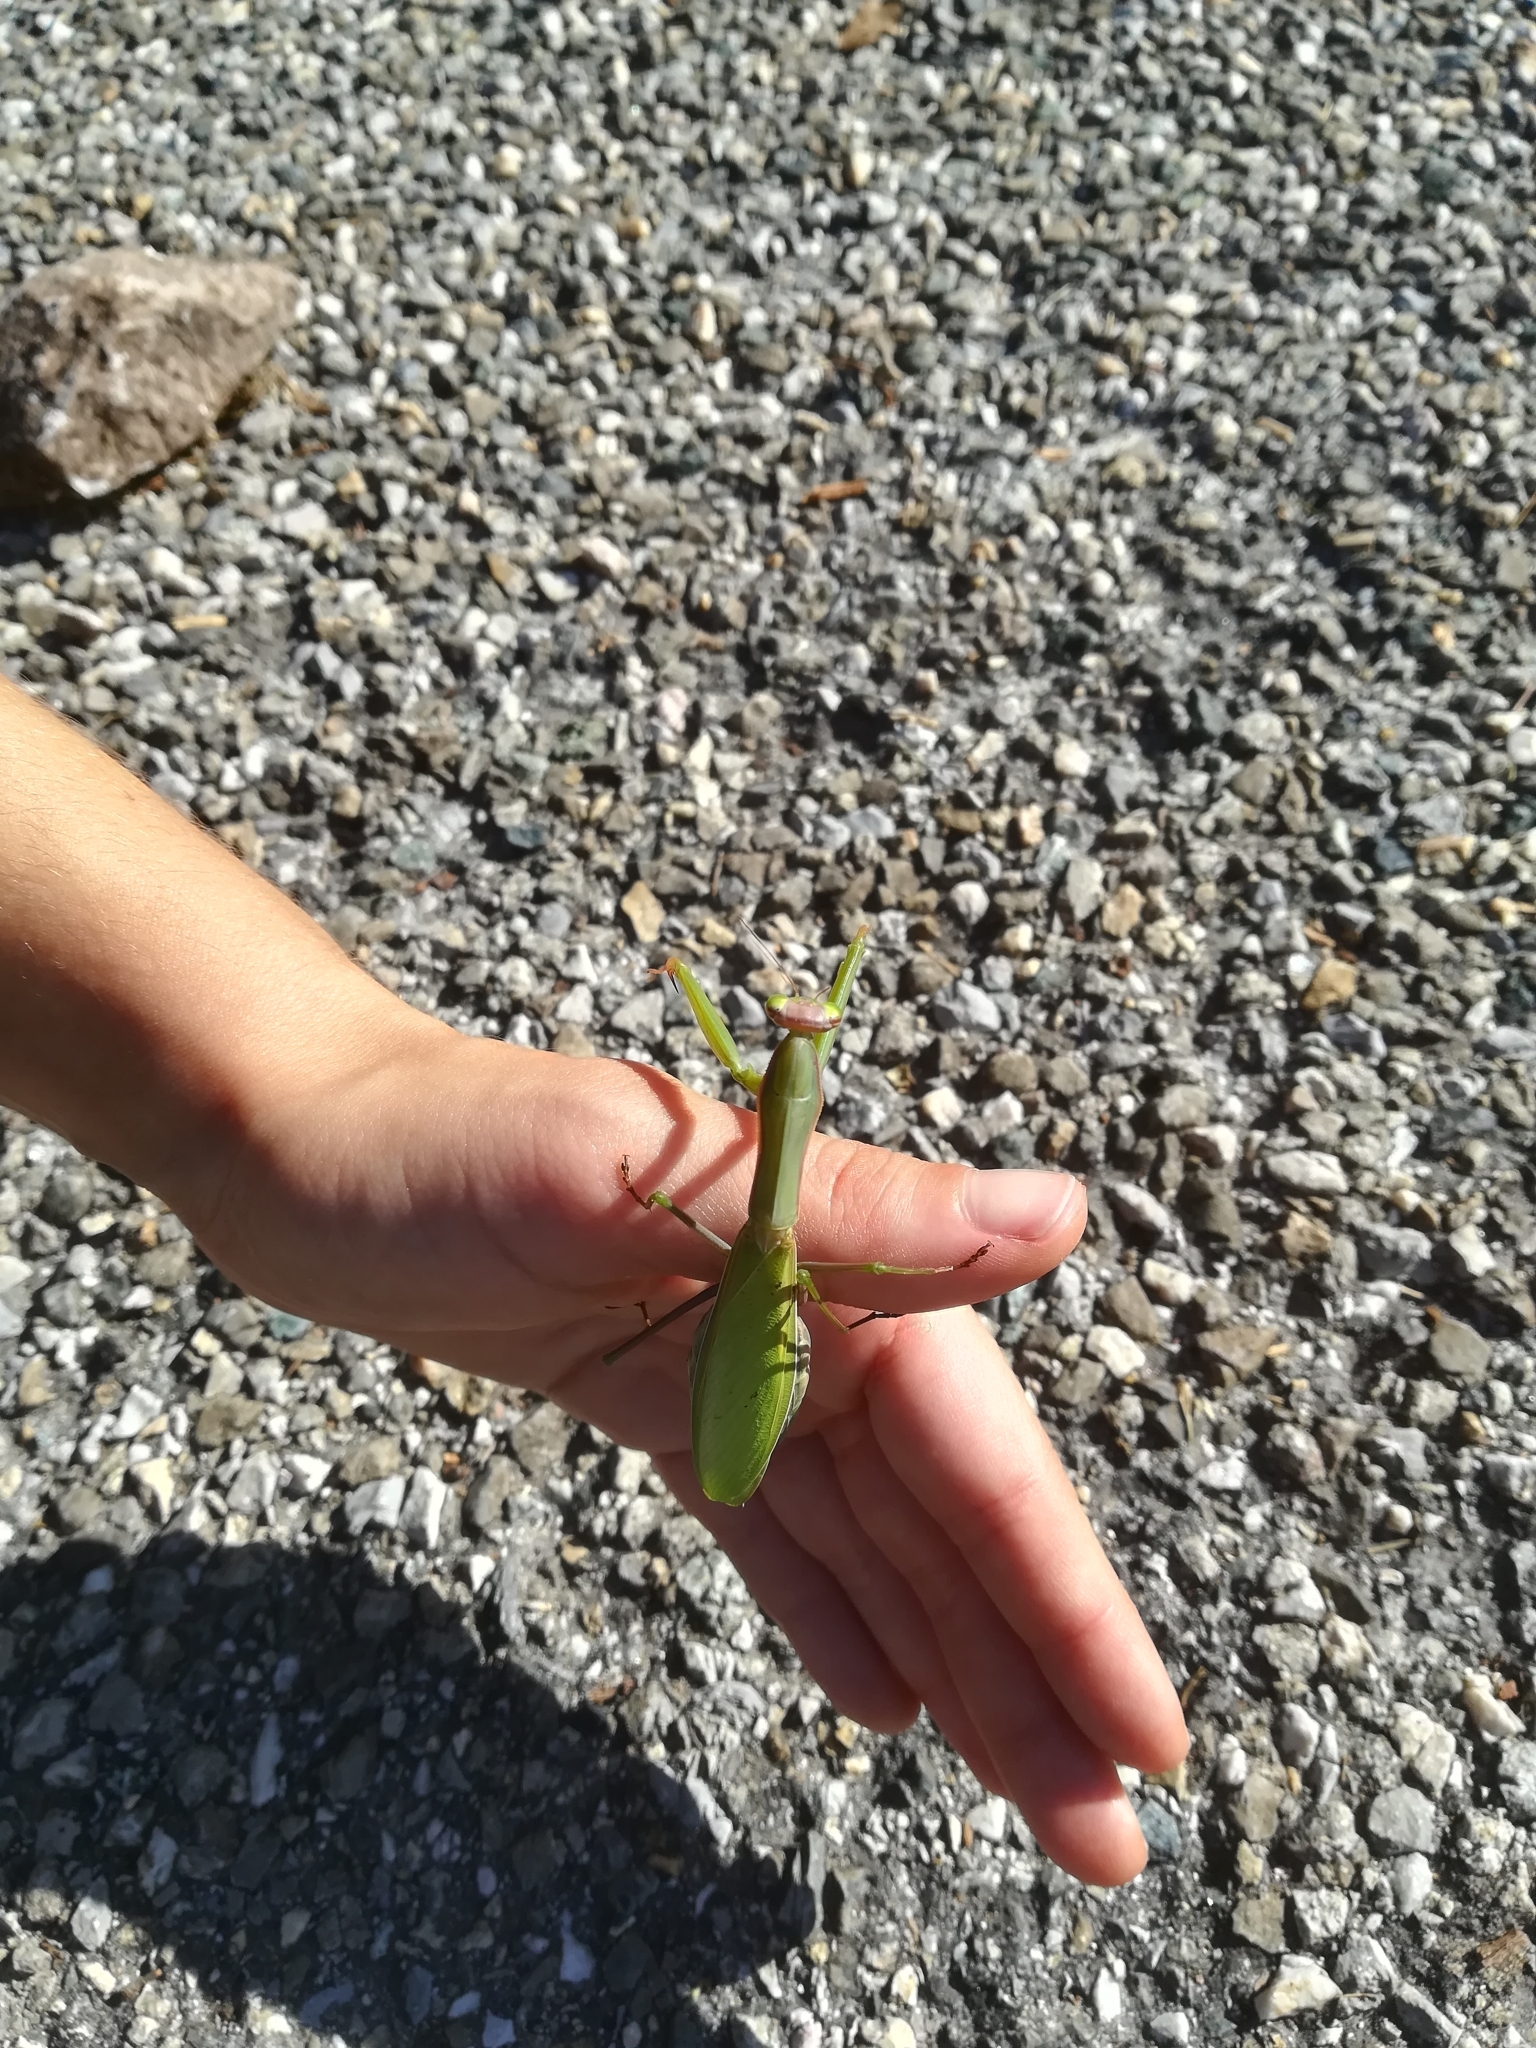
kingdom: Animalia
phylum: Arthropoda
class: Insecta
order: Mantodea
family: Mantidae
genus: Mantis
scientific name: Mantis religiosa
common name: Praying mantis
